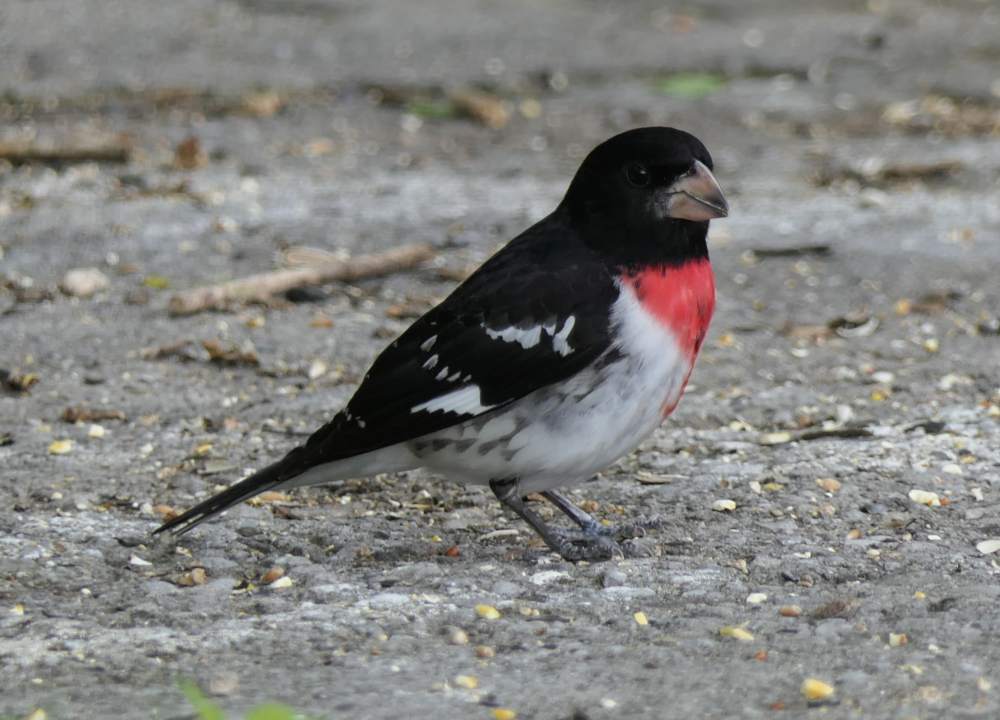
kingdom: Animalia
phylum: Chordata
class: Aves
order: Passeriformes
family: Cardinalidae
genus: Pheucticus
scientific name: Pheucticus ludovicianus
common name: Rose-breasted grosbeak
